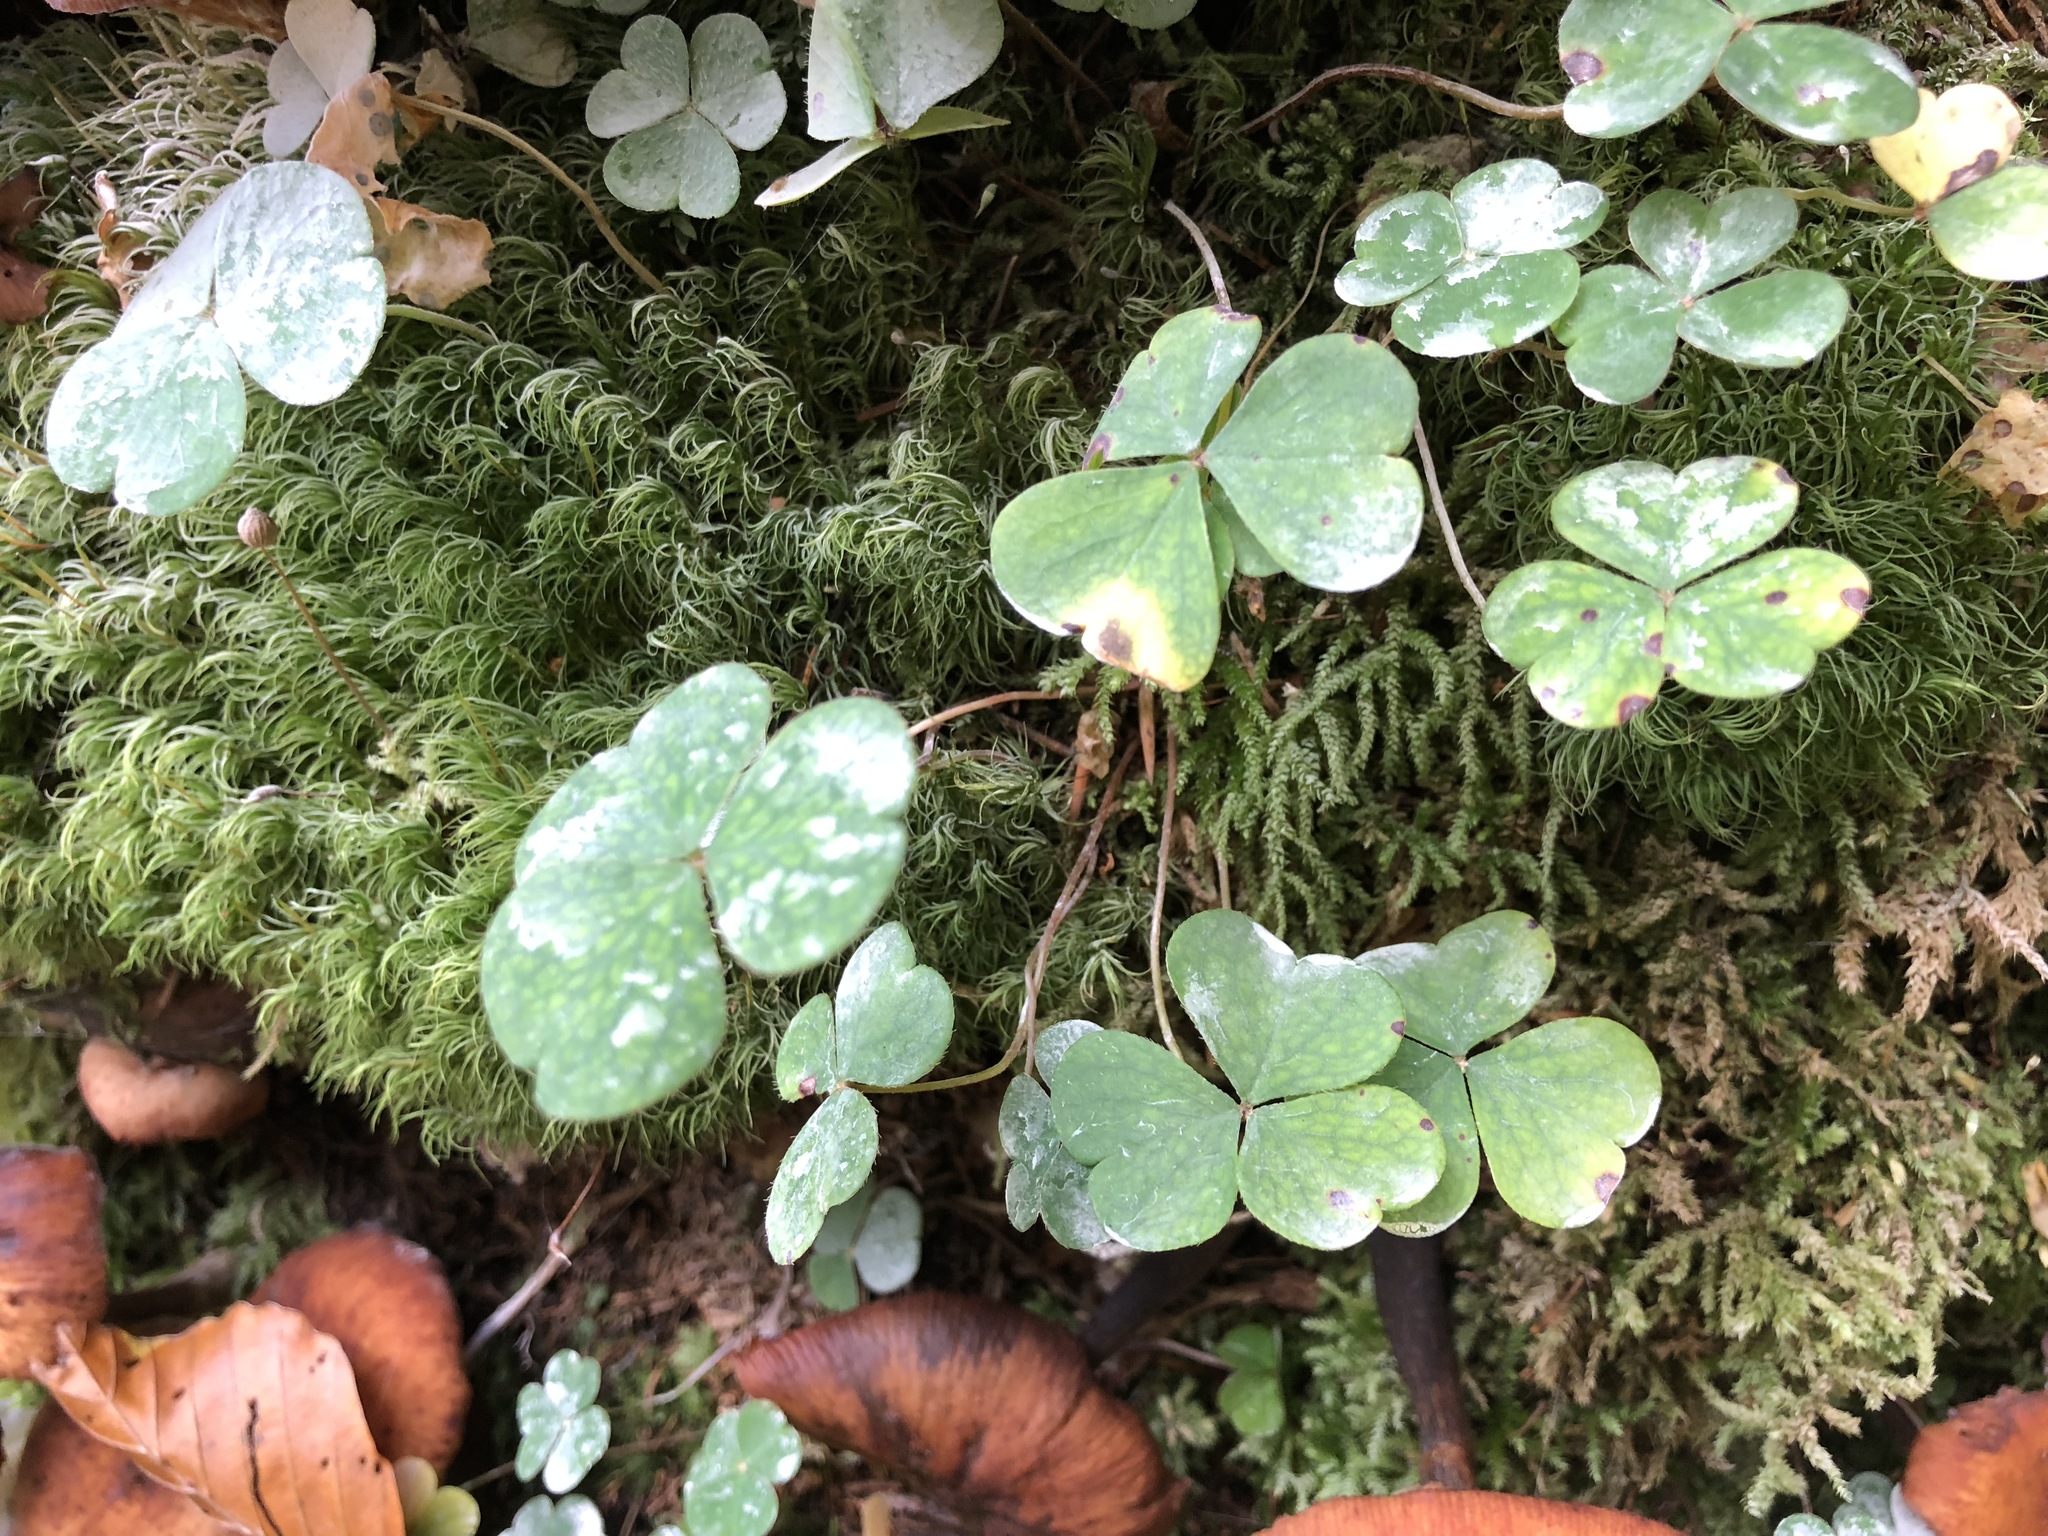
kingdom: Plantae
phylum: Tracheophyta
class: Magnoliopsida
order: Oxalidales
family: Oxalidaceae
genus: Oxalis
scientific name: Oxalis acetosella
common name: Wood-sorrel
